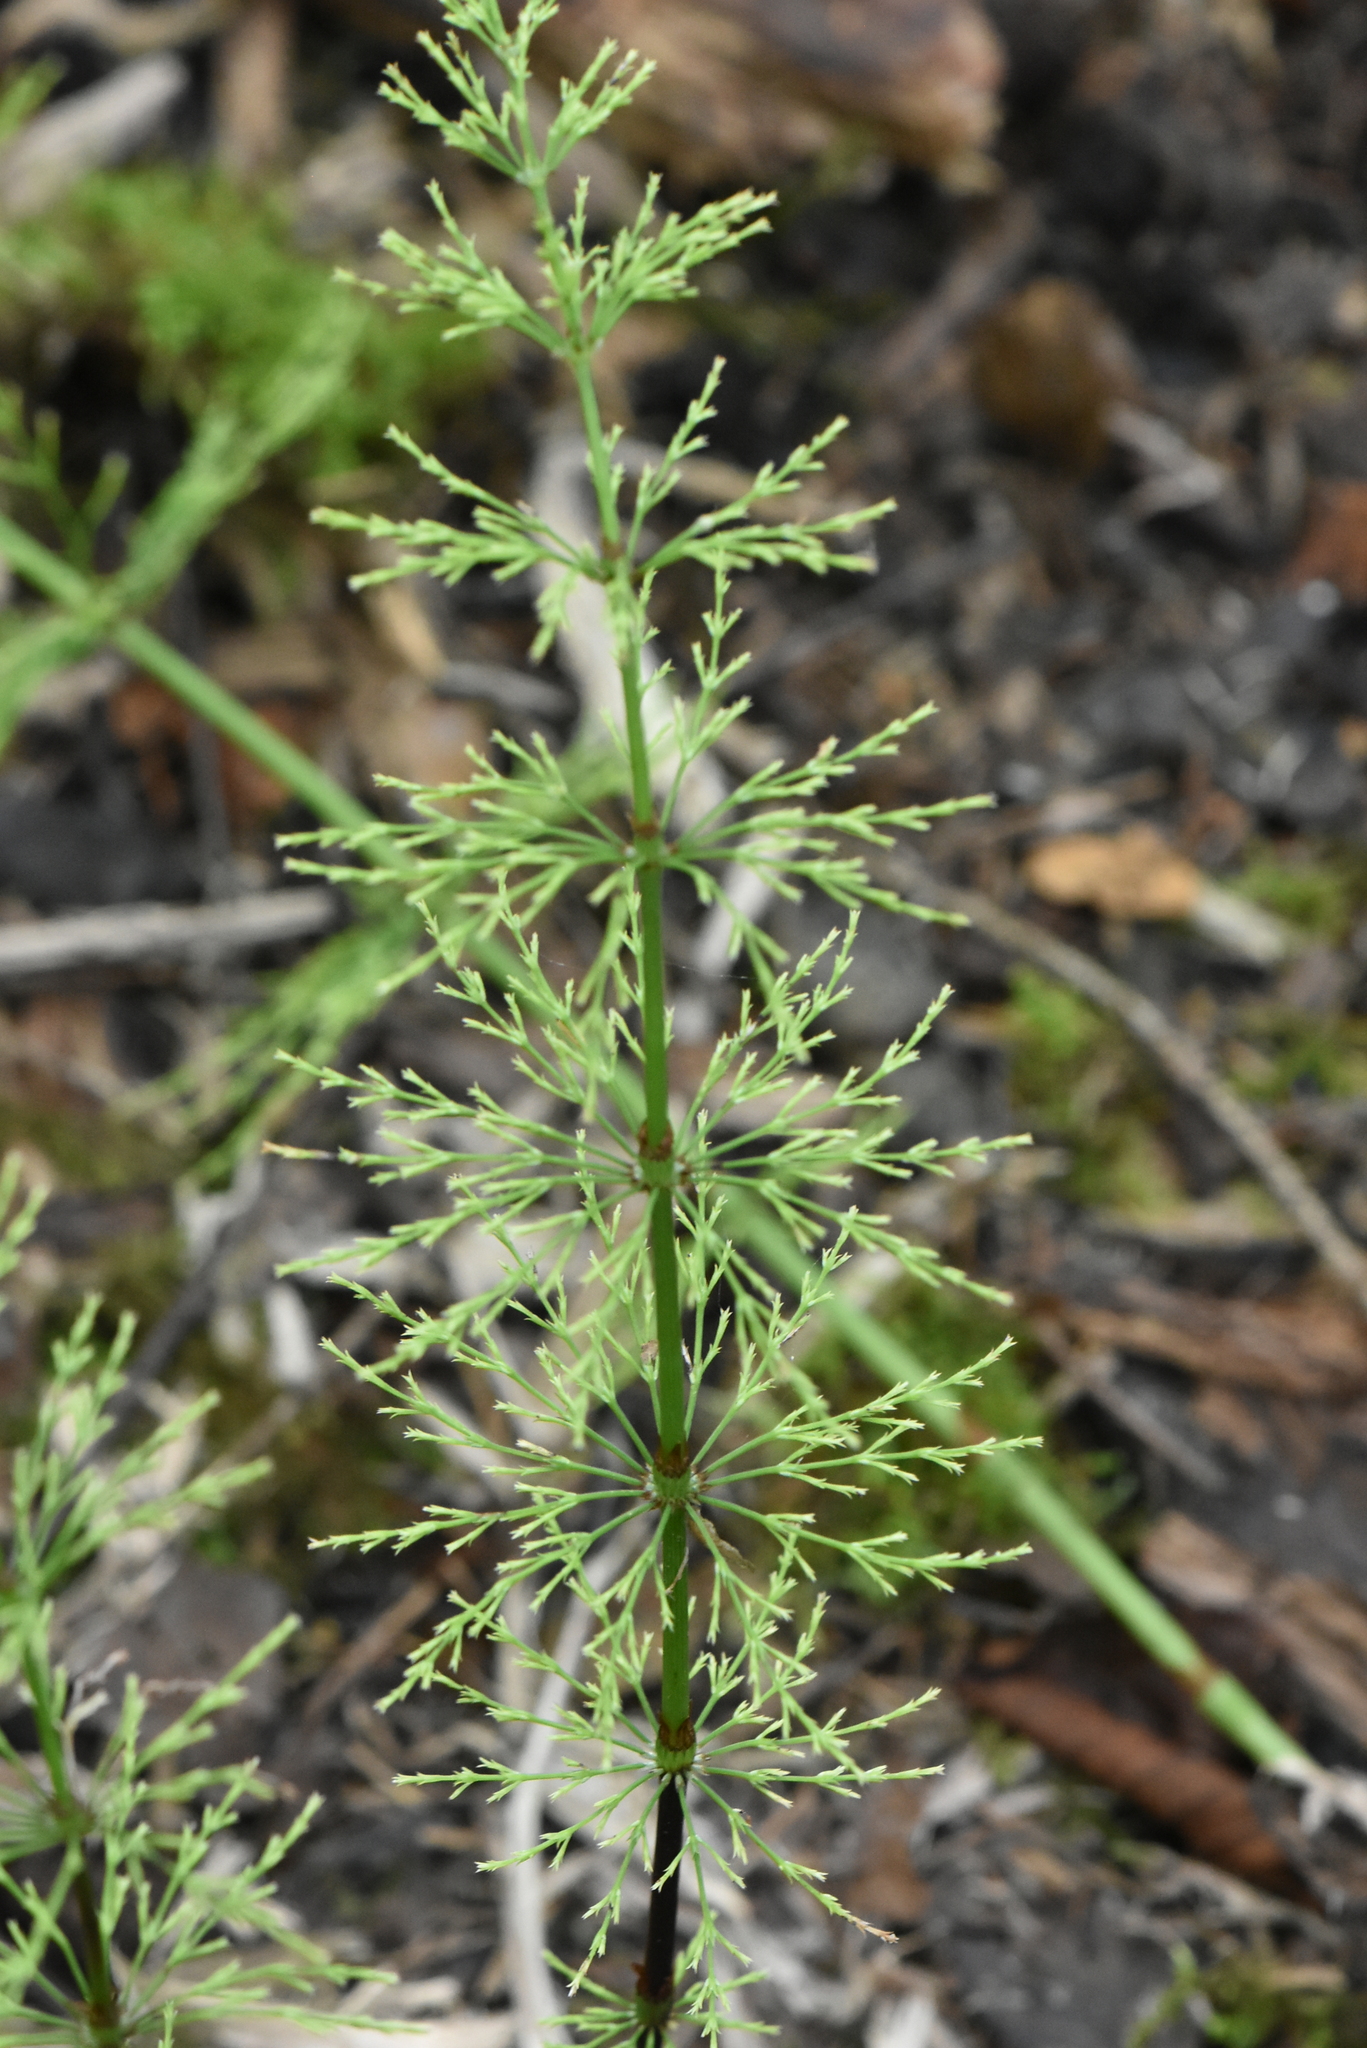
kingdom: Plantae
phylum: Tracheophyta
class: Polypodiopsida
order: Equisetales
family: Equisetaceae
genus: Equisetum
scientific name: Equisetum sylvaticum
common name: Wood horsetail
